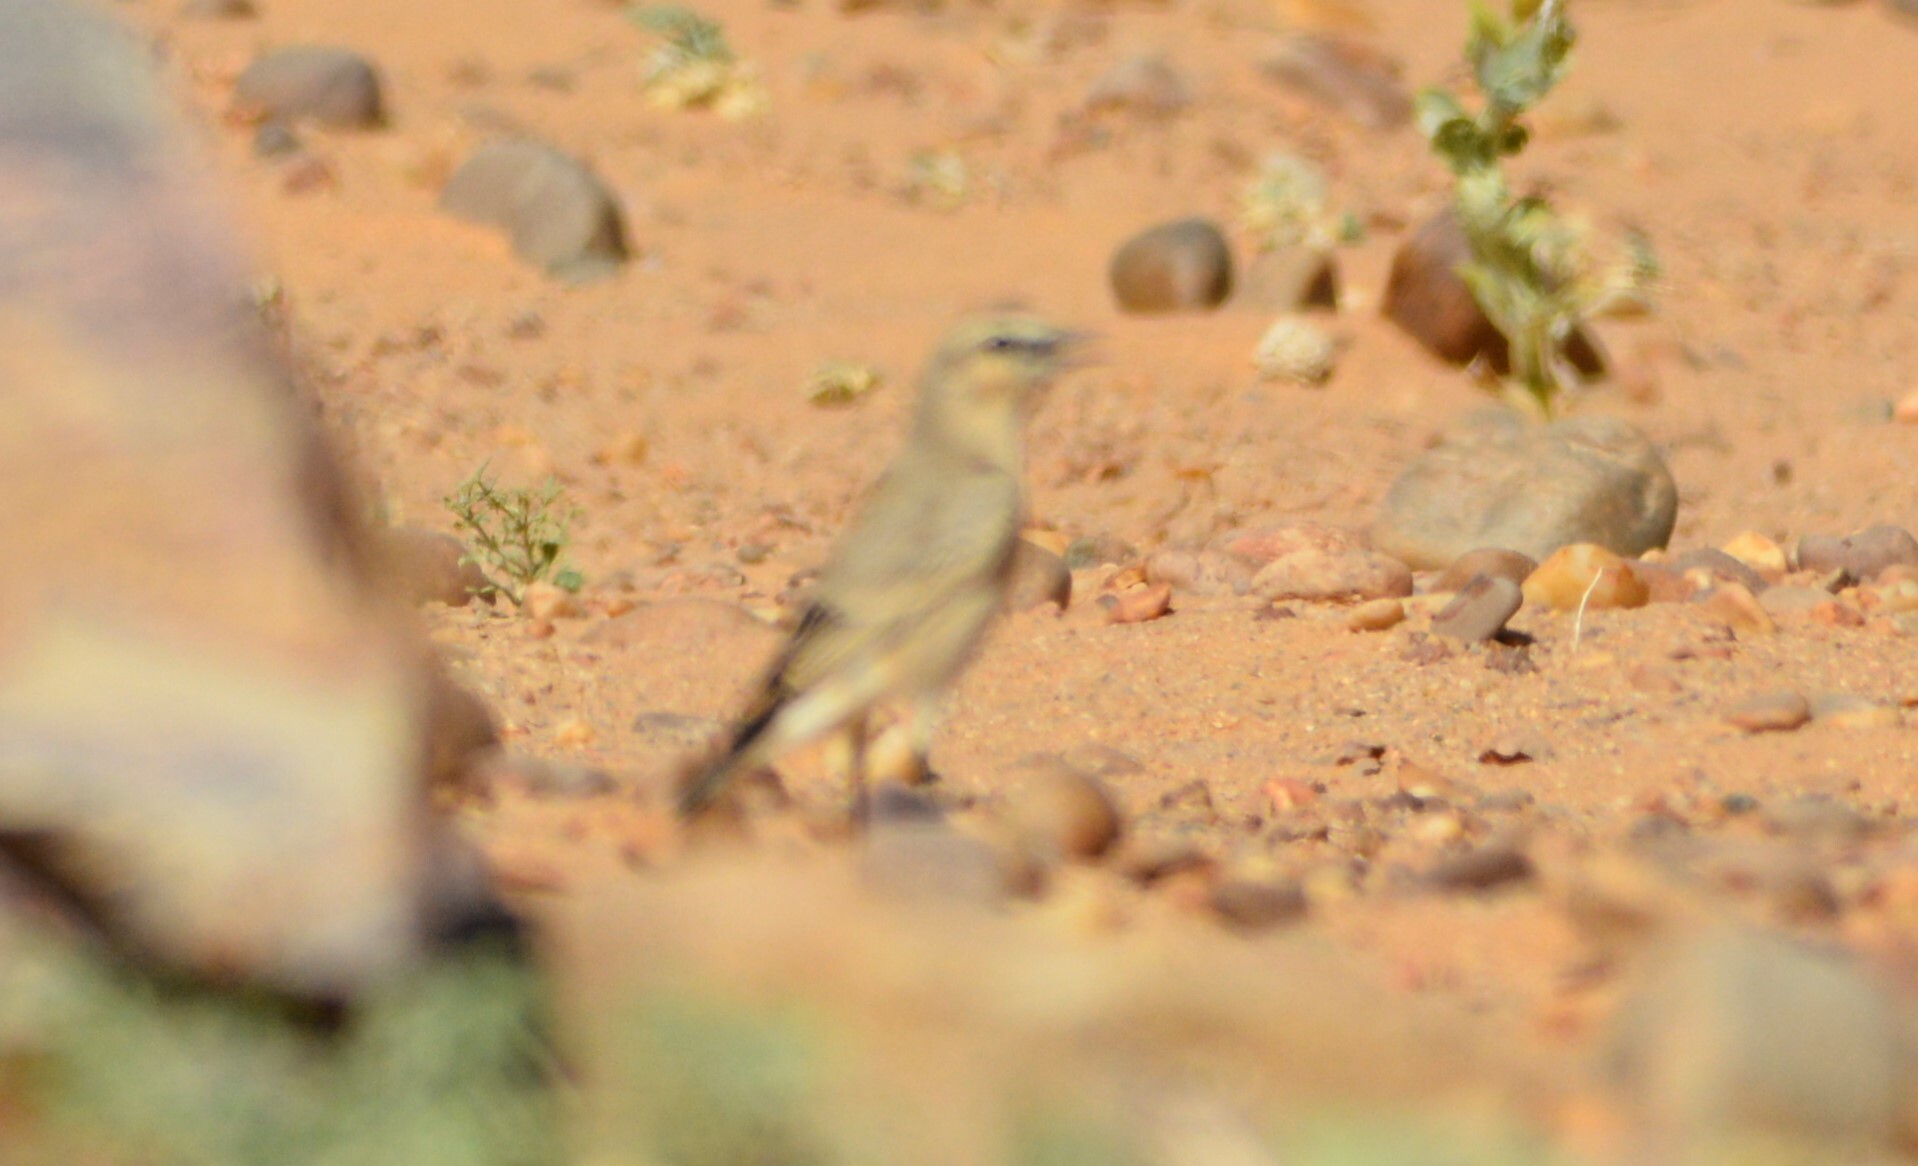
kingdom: Animalia
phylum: Chordata
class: Aves
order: Passeriformes
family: Muscicapidae
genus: Oenanthe
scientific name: Oenanthe isabellina
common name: Isabelline wheatear
